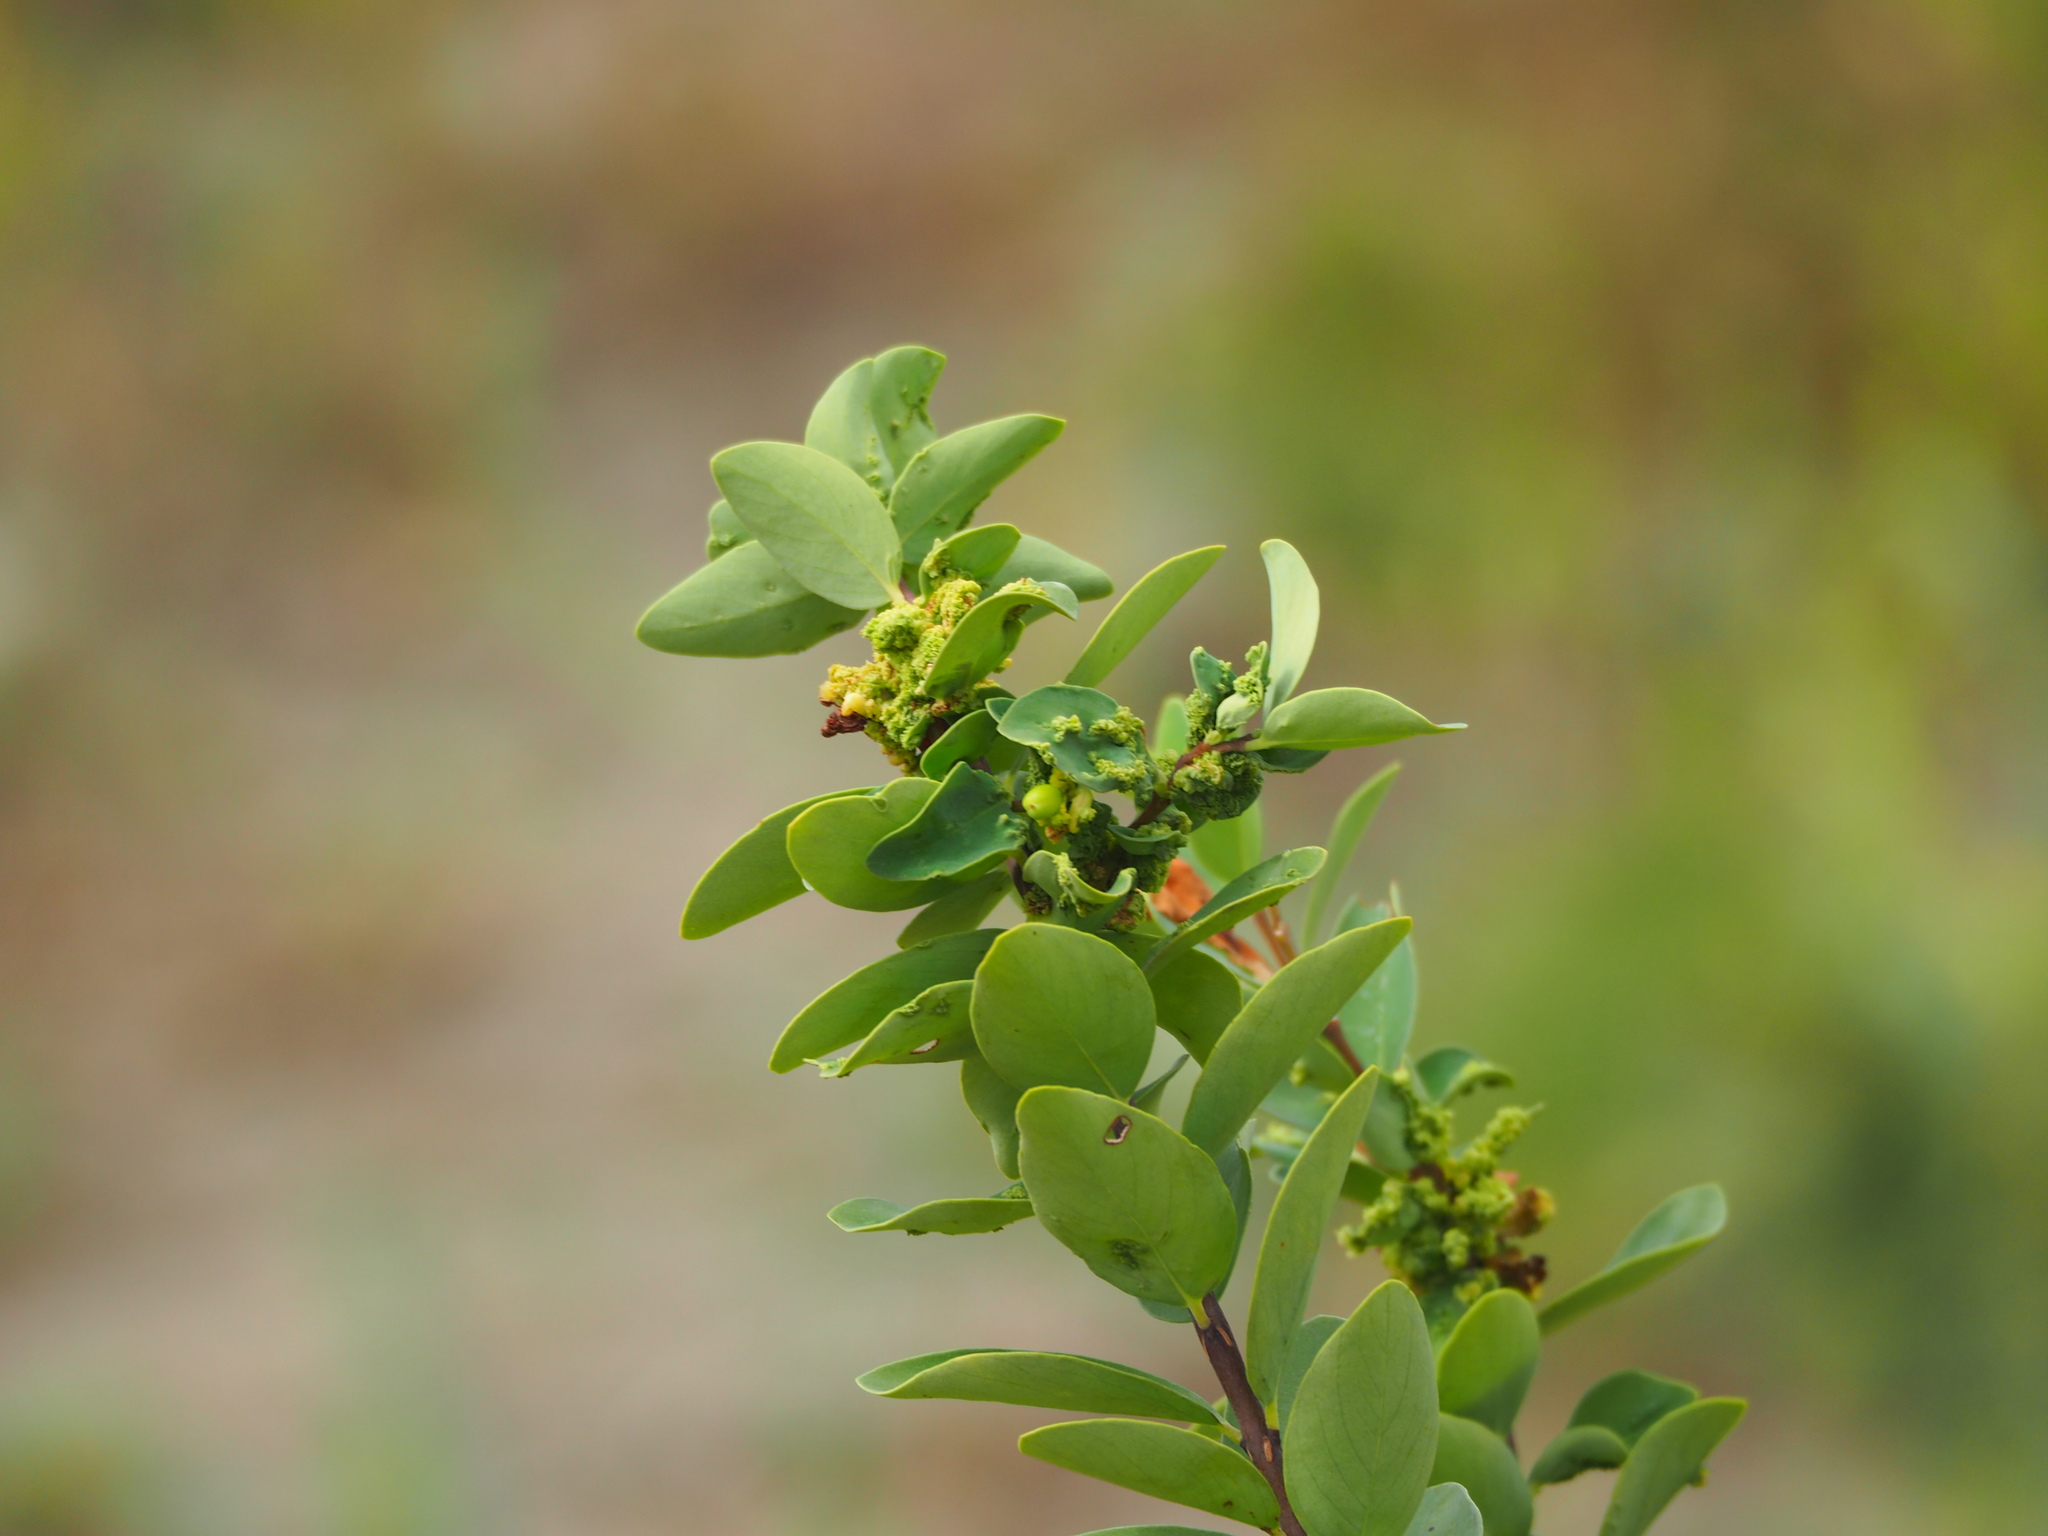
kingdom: Plantae
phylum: Tracheophyta
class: Magnoliopsida
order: Malvales
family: Thymelaeaceae
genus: Wikstroemia
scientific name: Wikstroemia indica
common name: Tiebush
